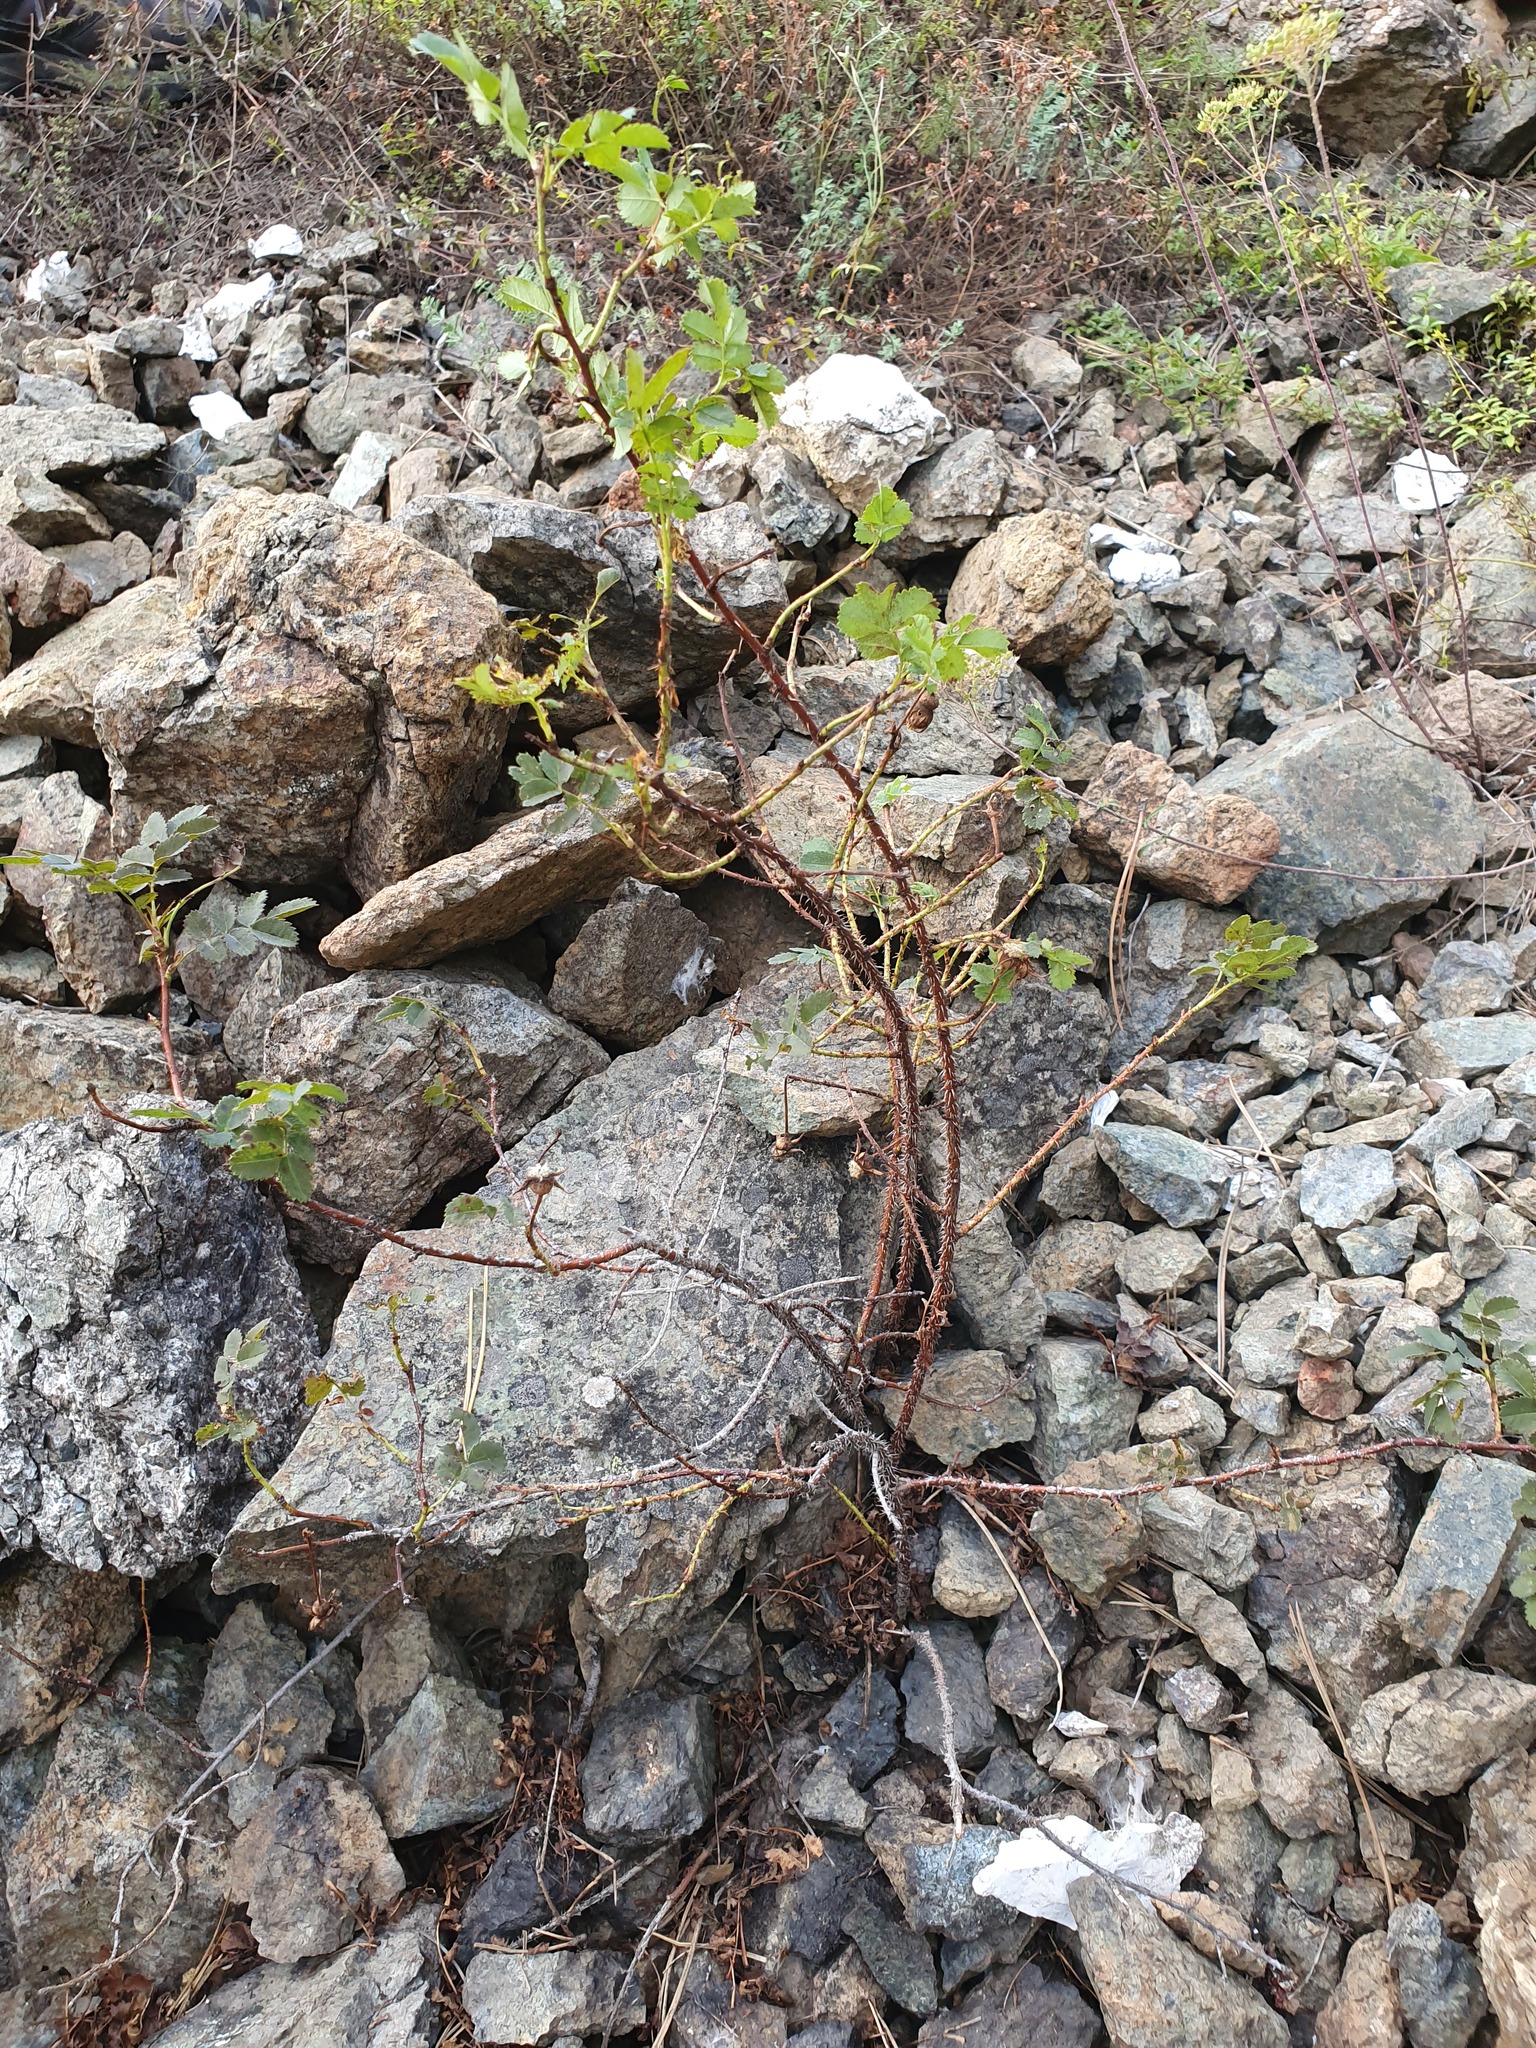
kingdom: Plantae
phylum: Tracheophyta
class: Magnoliopsida
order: Rosales
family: Rosaceae
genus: Rosa
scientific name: Rosa spinosissima
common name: Burnet rose
